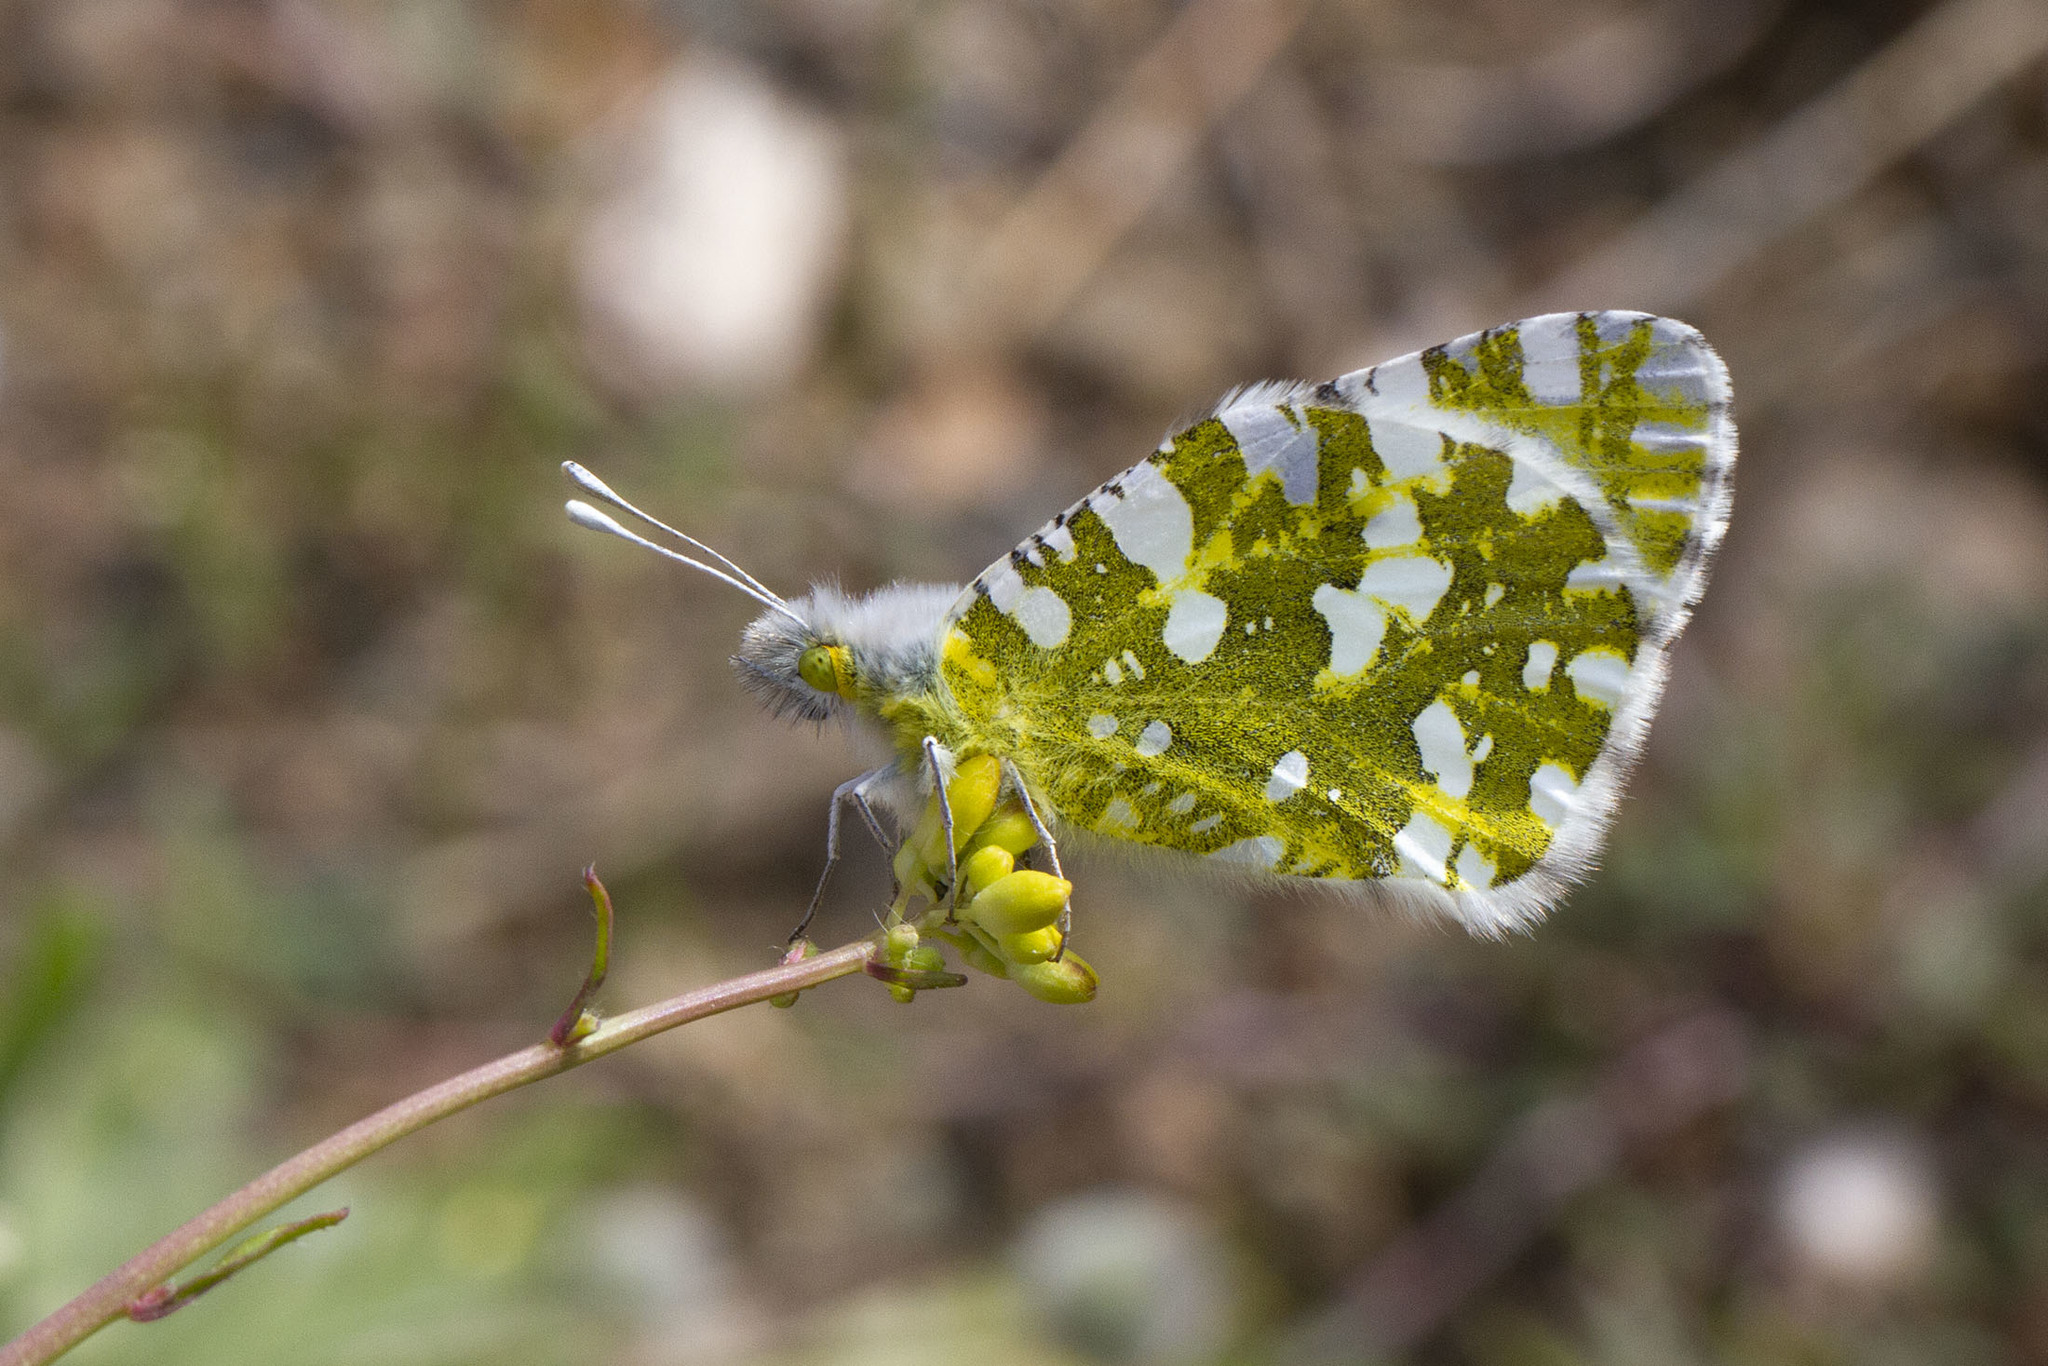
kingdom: Animalia
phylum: Arthropoda
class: Insecta
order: Lepidoptera
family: Pieridae
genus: Euchloe
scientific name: Euchloe ausonia
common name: Eastern dappled white
